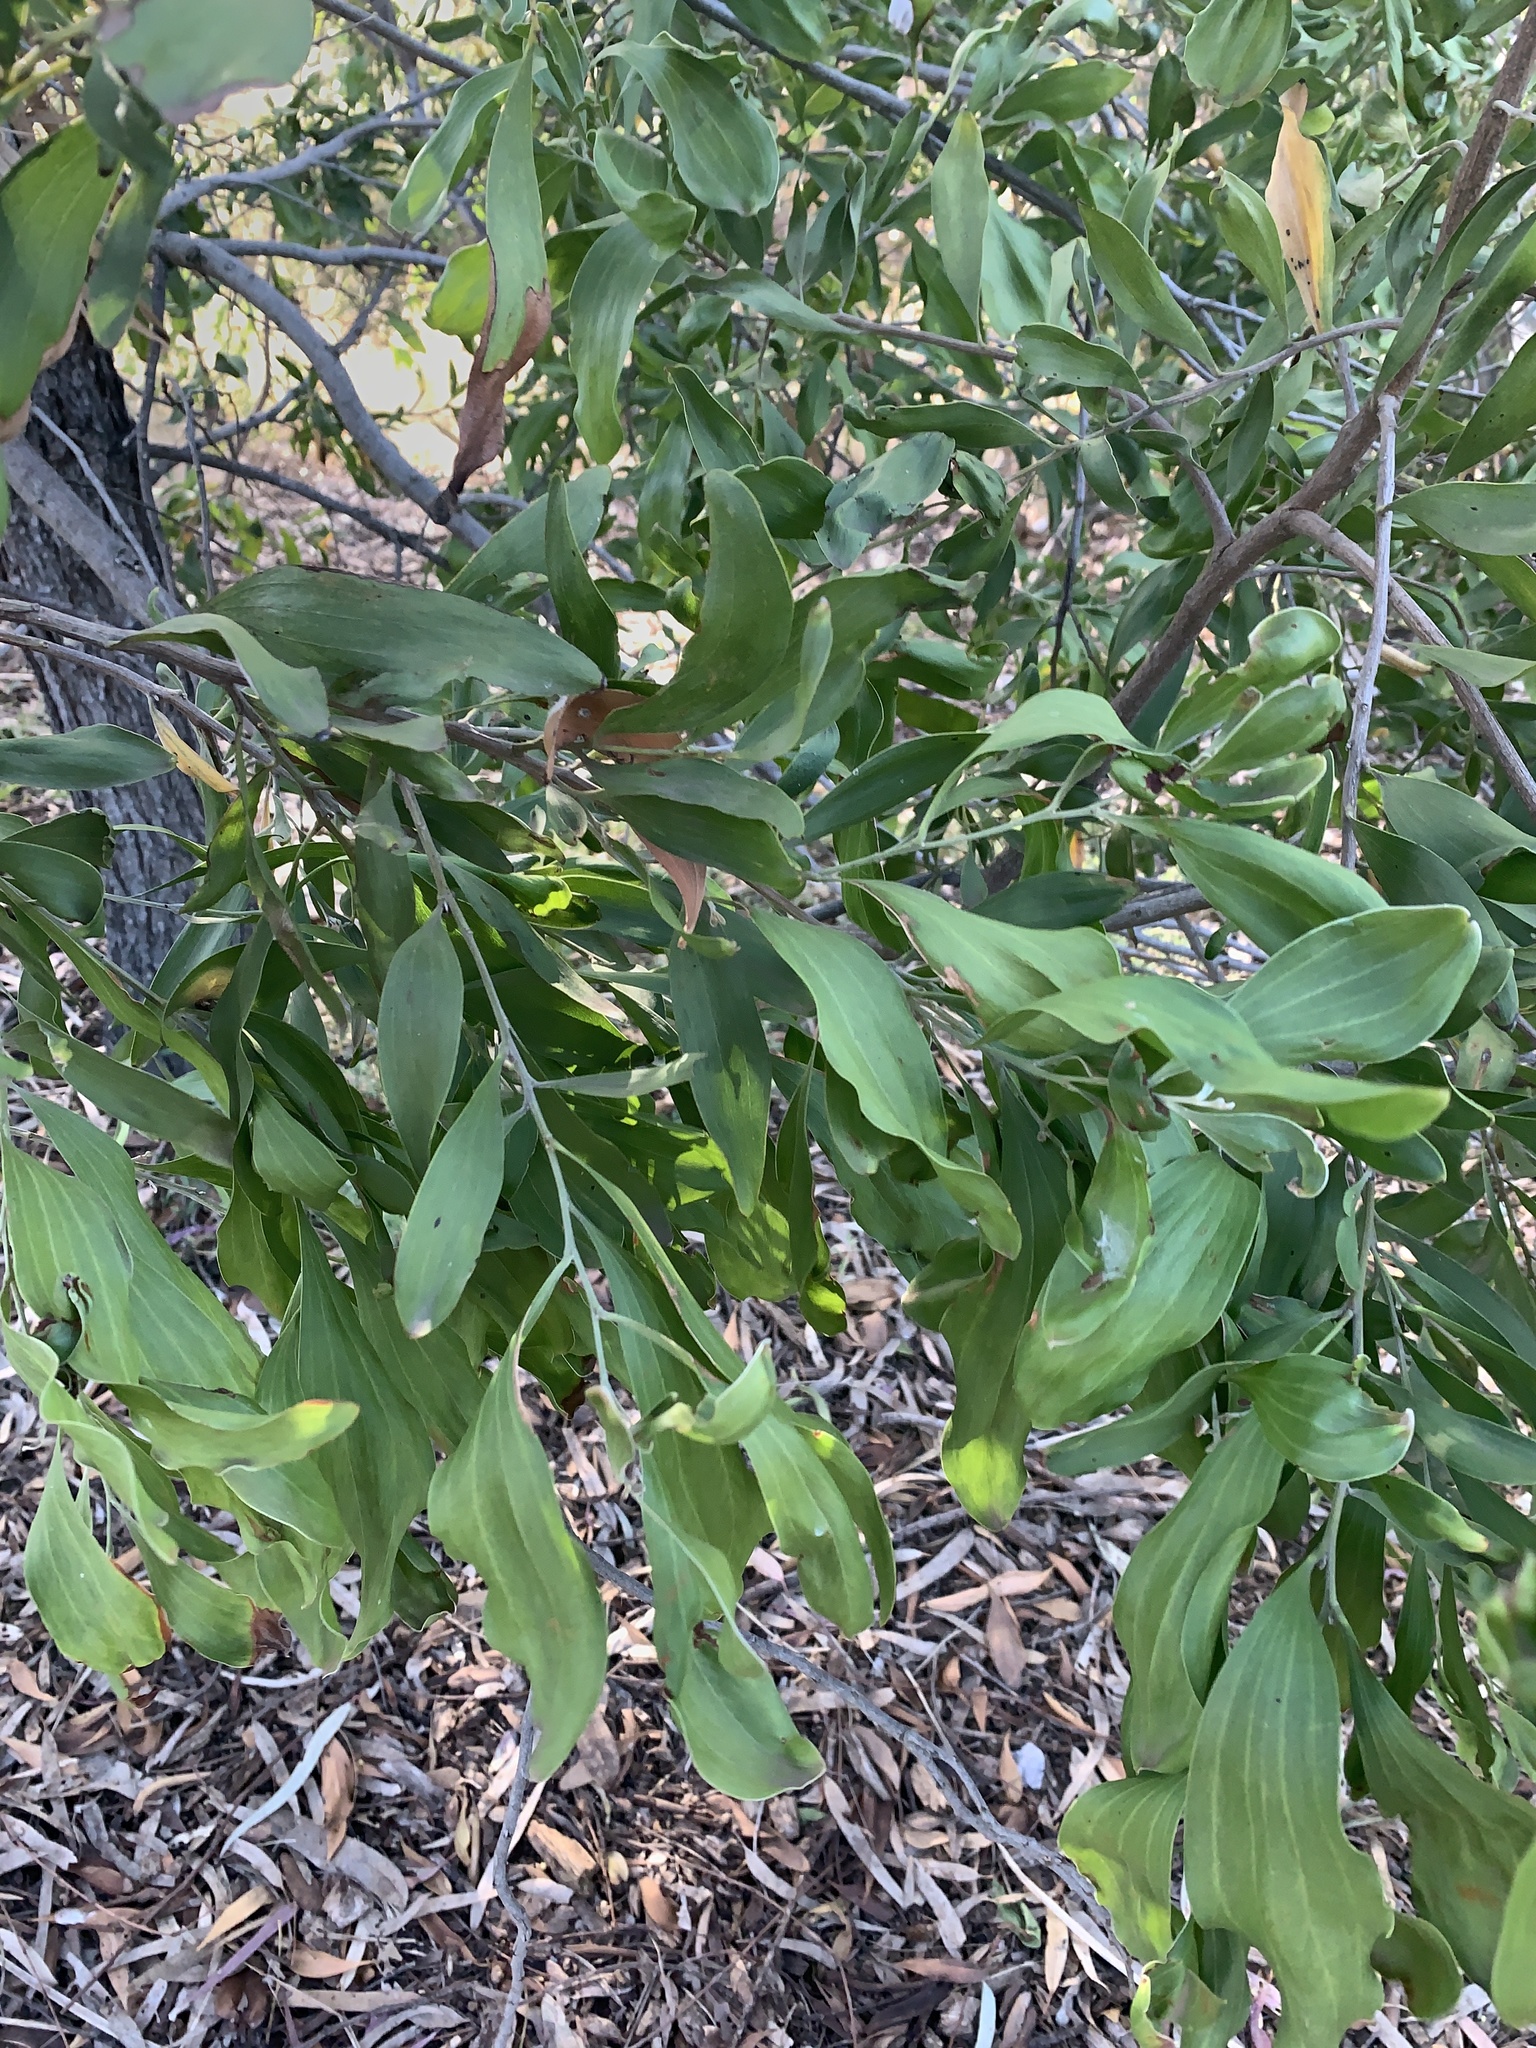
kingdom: Plantae
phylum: Tracheophyta
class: Magnoliopsida
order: Fabales
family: Fabaceae
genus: Acacia
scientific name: Acacia melanoxylon
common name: Blackwood
